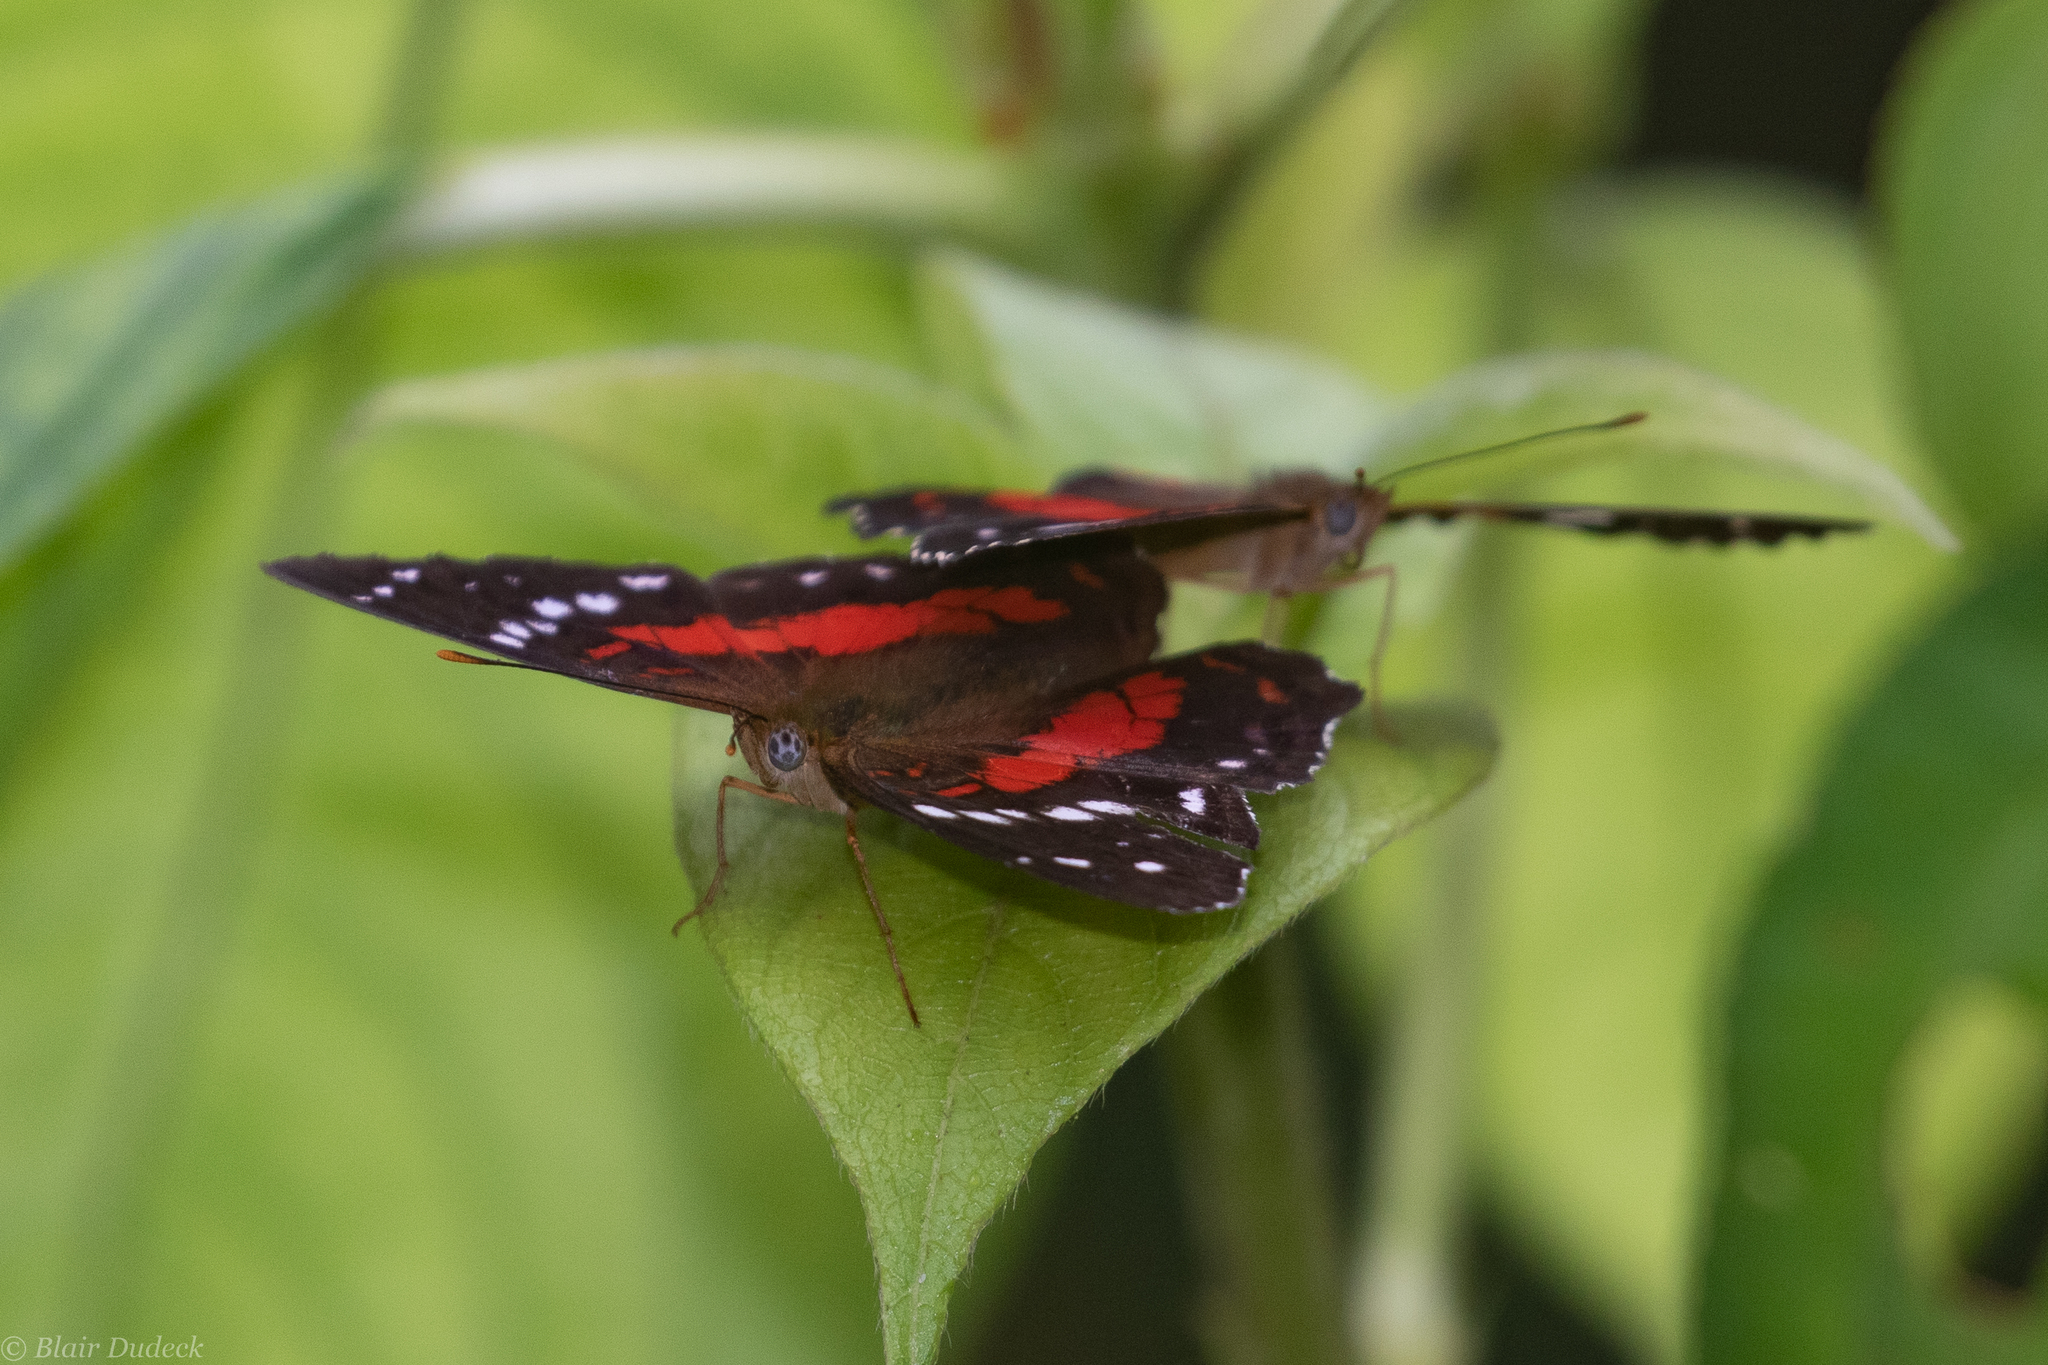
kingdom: Animalia
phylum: Arthropoda
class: Insecta
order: Lepidoptera
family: Nymphalidae
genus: Anartia
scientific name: Anartia amathea
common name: Red peacock
